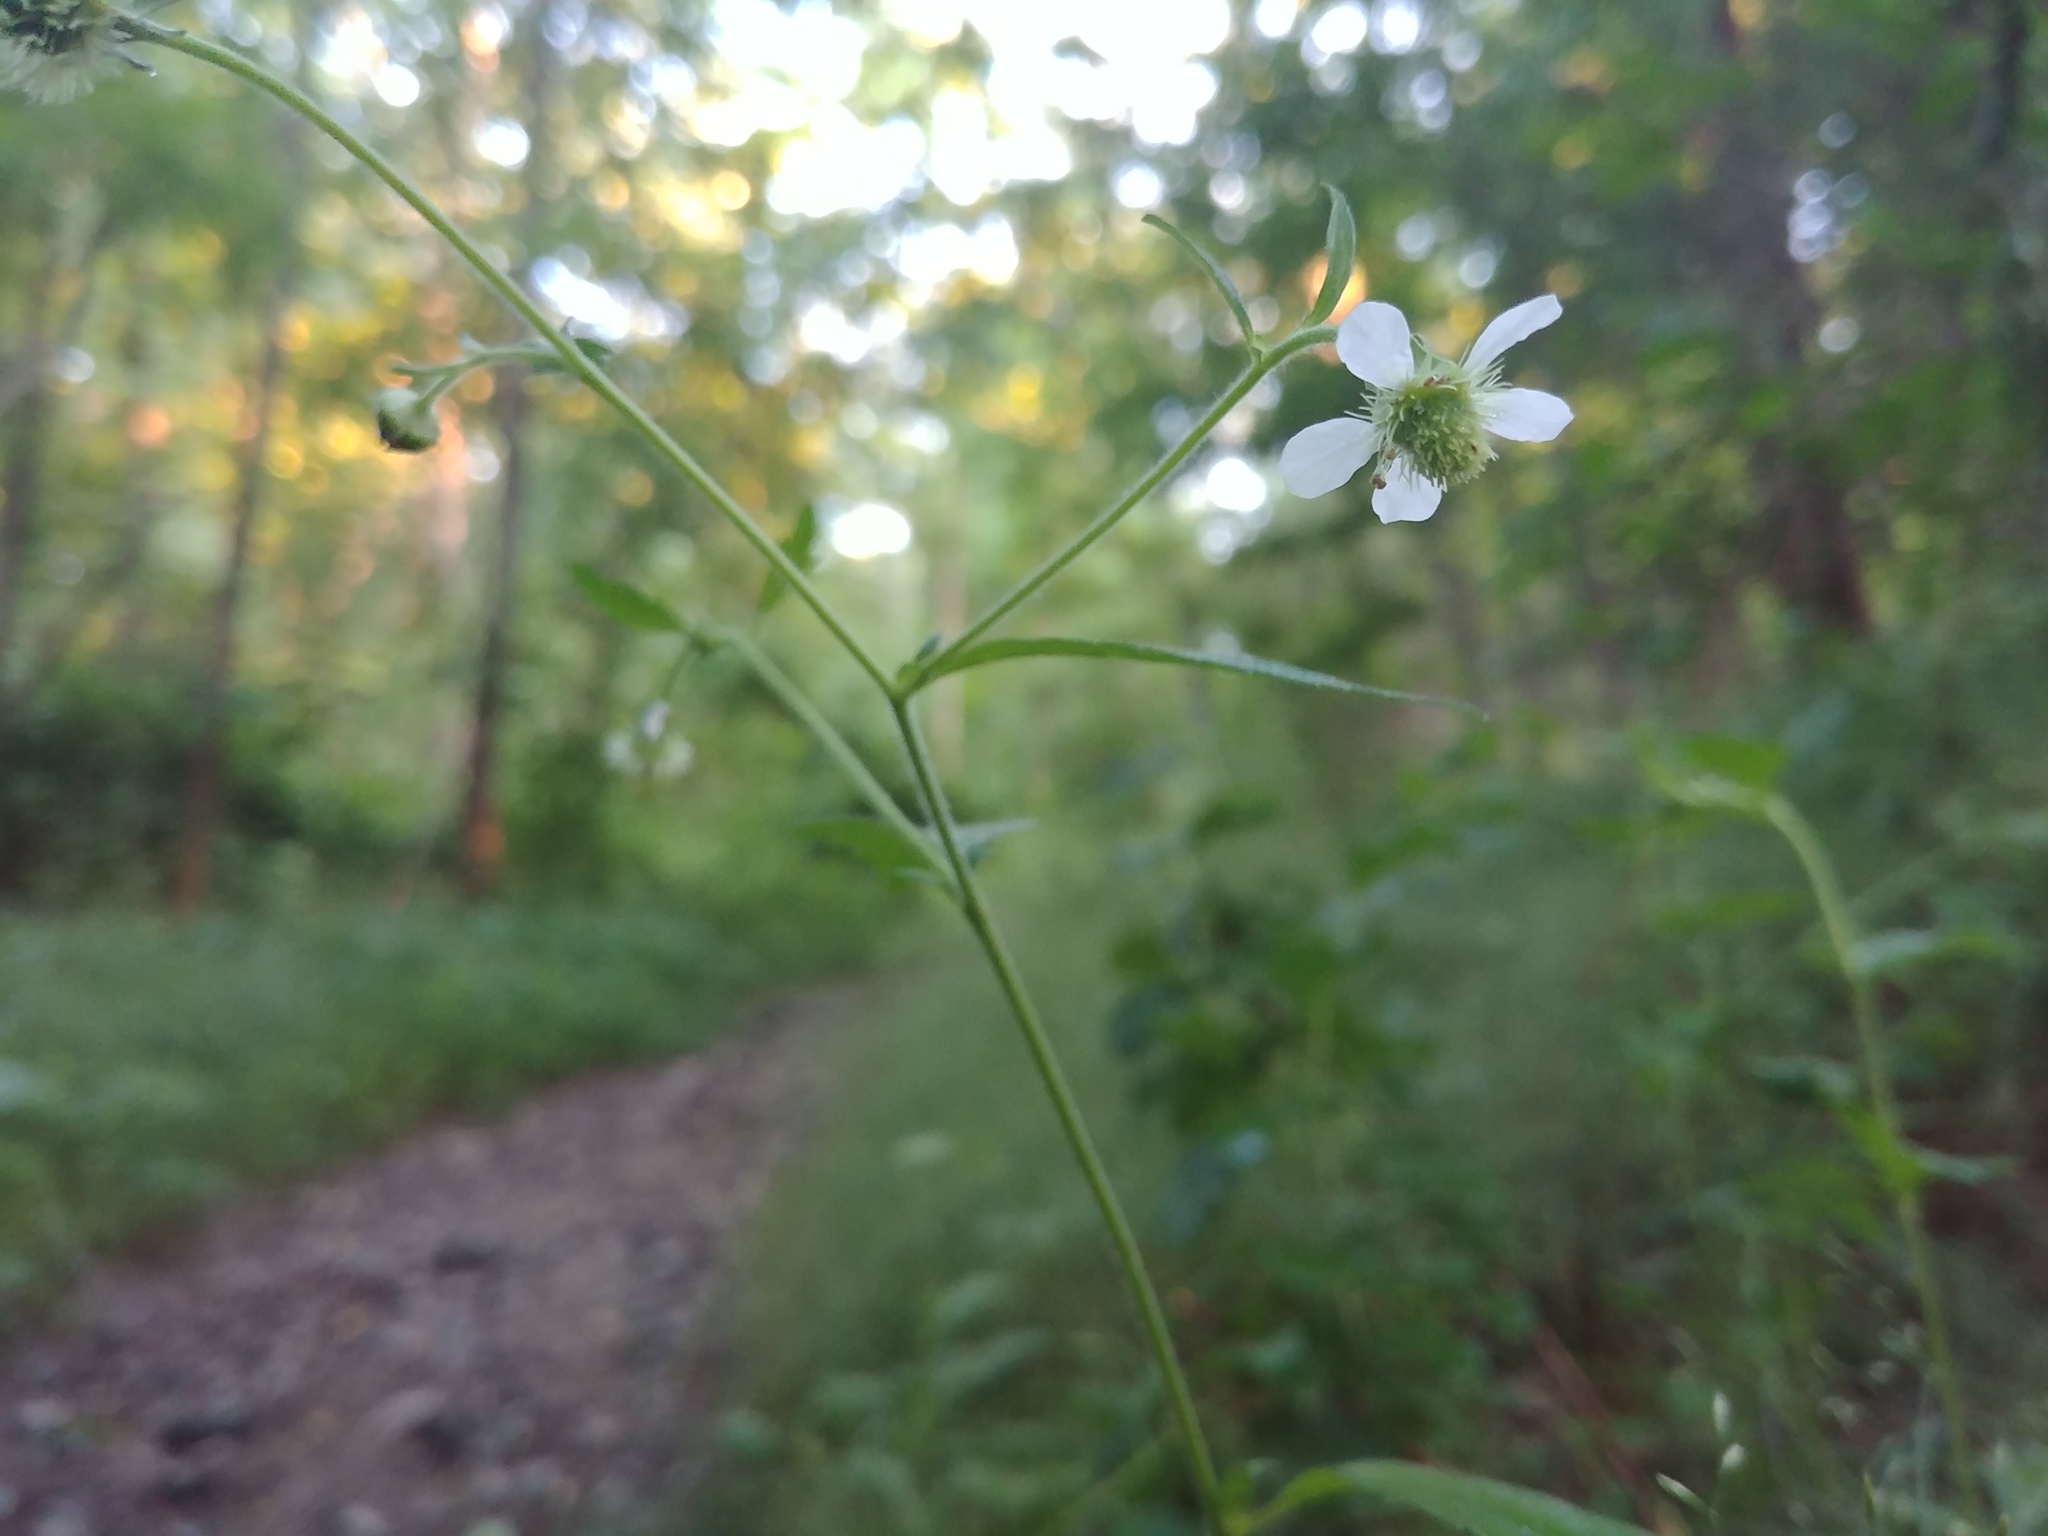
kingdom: Plantae
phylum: Tracheophyta
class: Magnoliopsida
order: Rosales
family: Rosaceae
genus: Geum
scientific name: Geum canadense
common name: White avens
